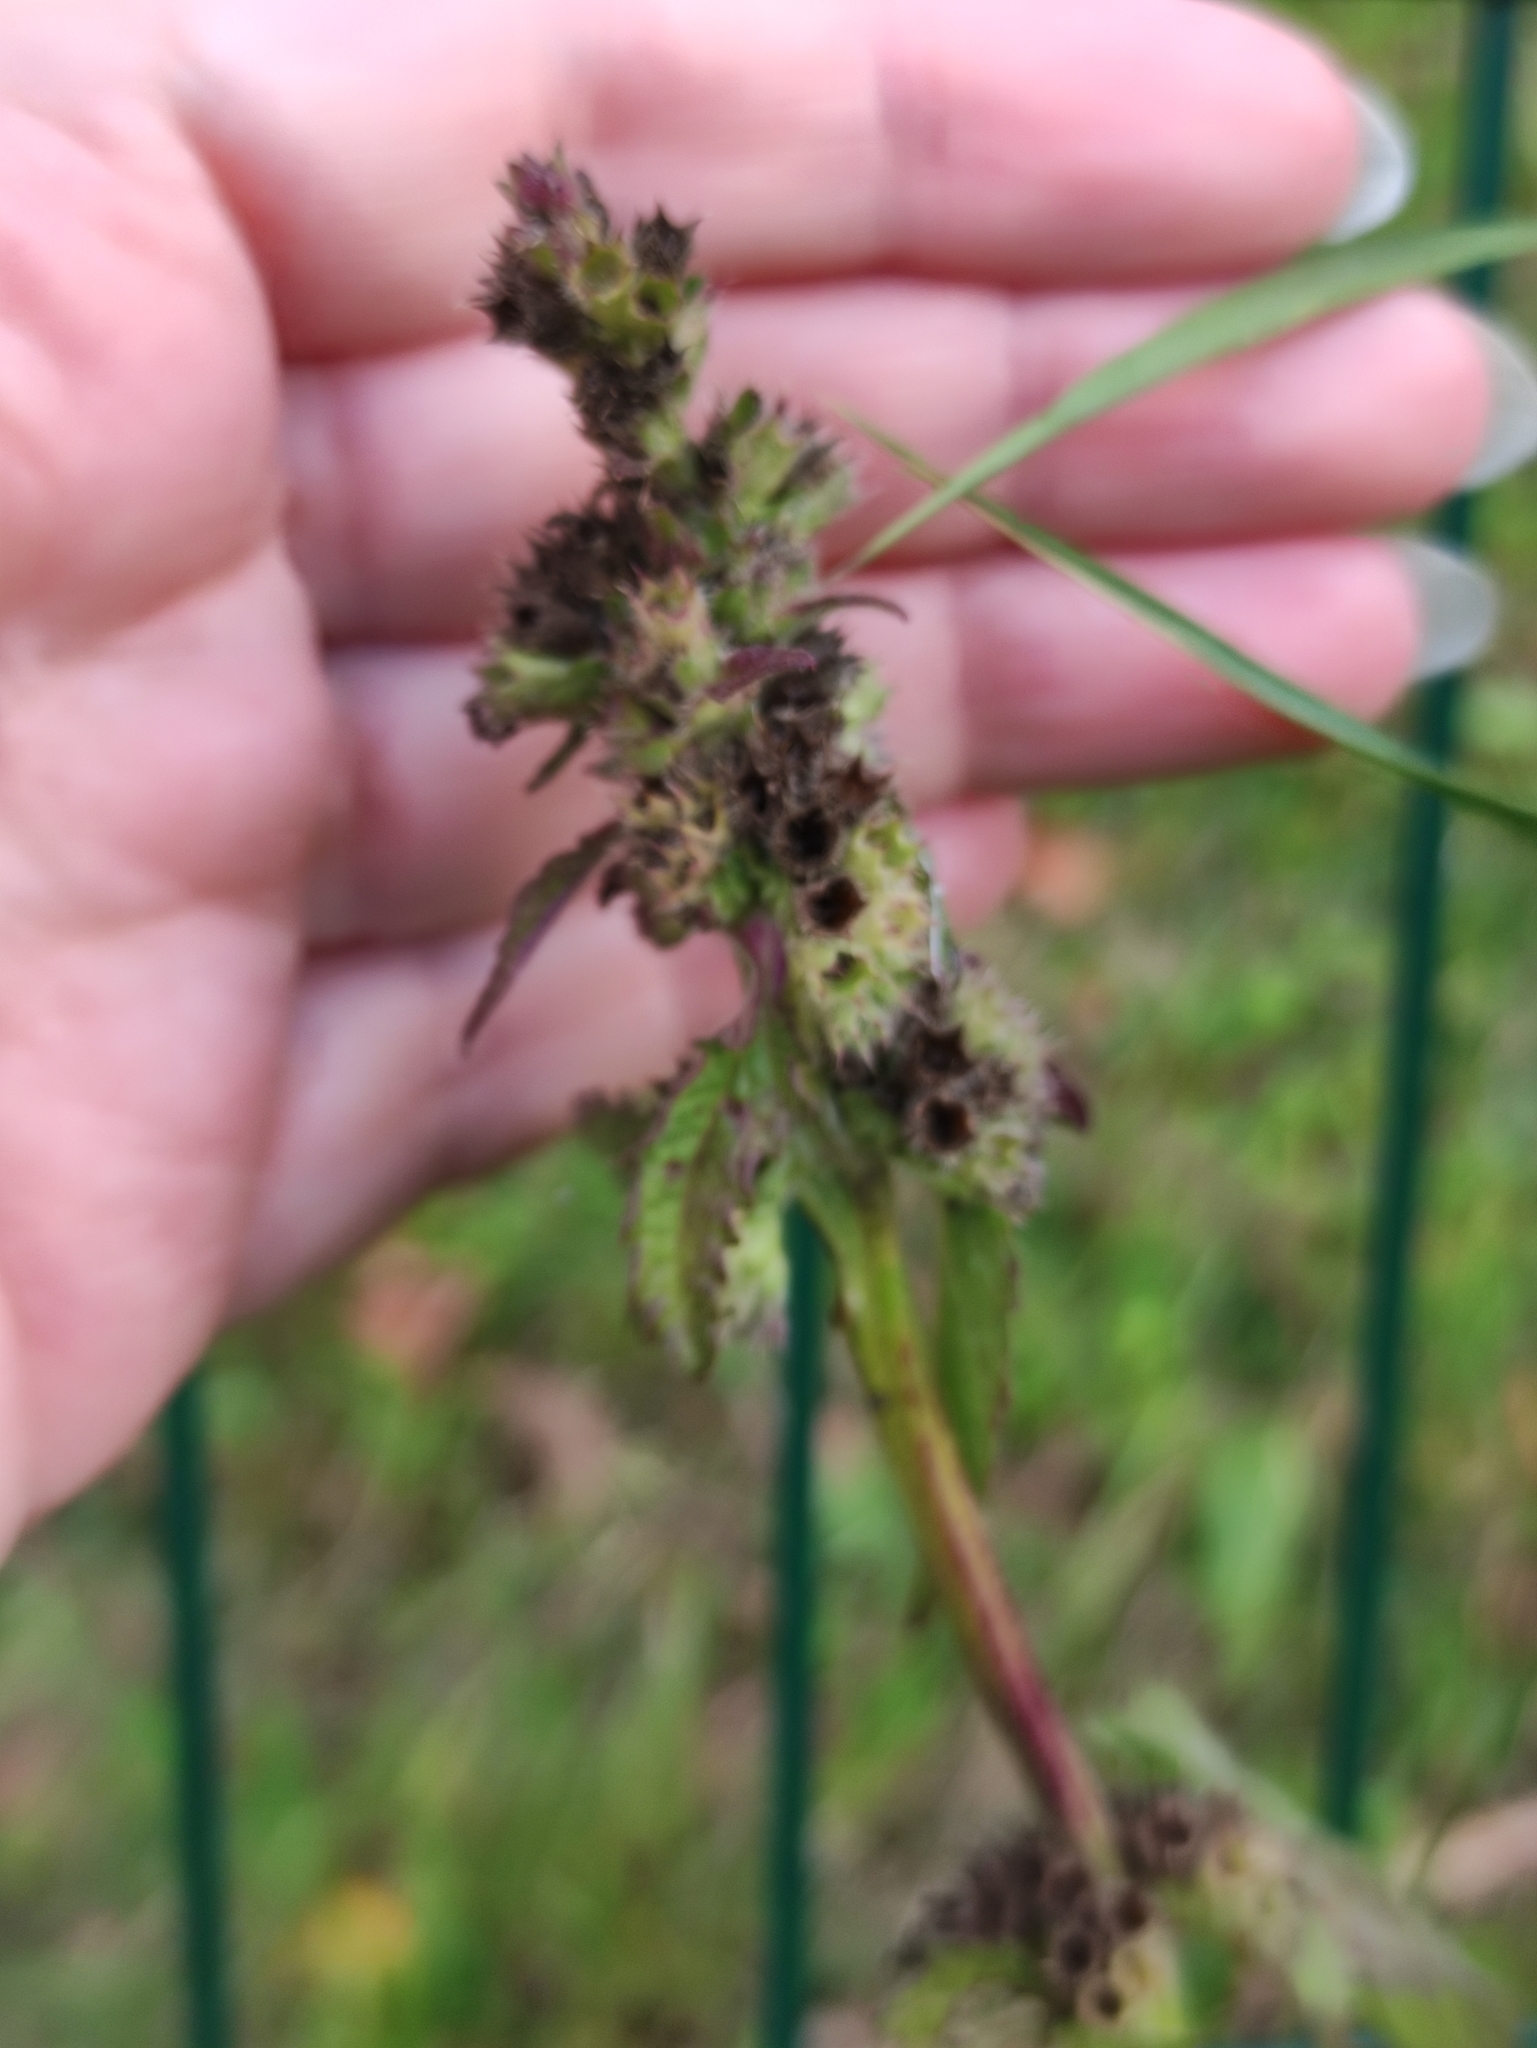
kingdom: Plantae
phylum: Tracheophyta
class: Magnoliopsida
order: Lamiales
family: Lamiaceae
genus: Betonica
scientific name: Betonica officinalis
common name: Bishop's-wort
